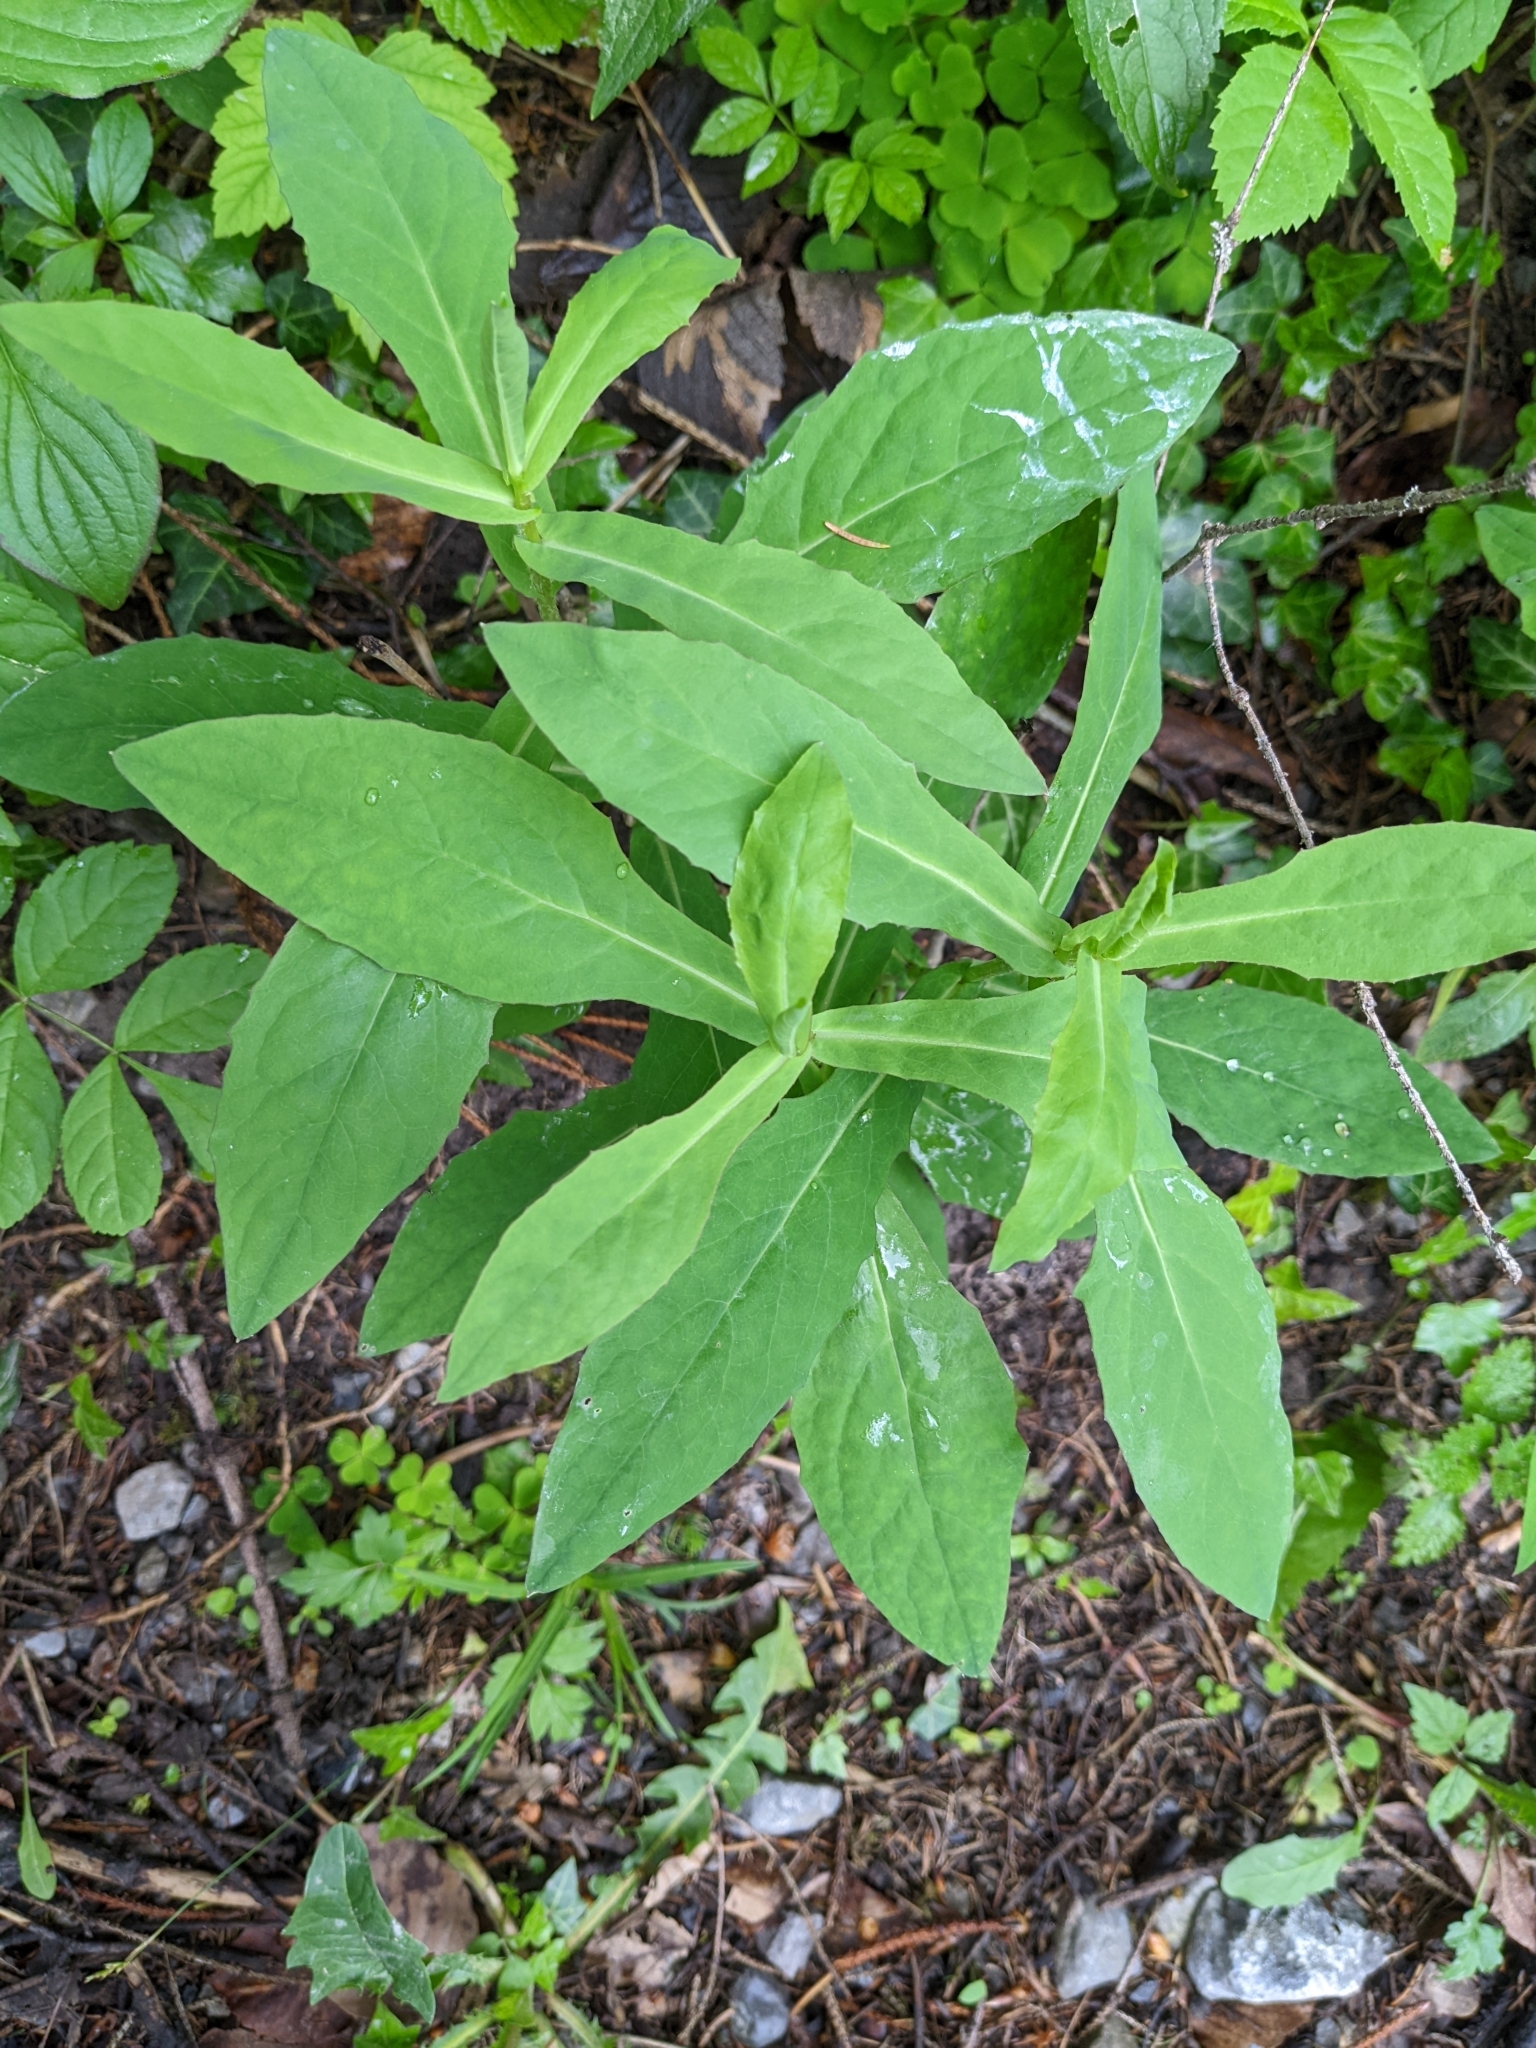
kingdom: Plantae
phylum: Tracheophyta
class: Magnoliopsida
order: Asterales
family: Asteraceae
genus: Prenanthes
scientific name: Prenanthes purpurea
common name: Purple lettuce
